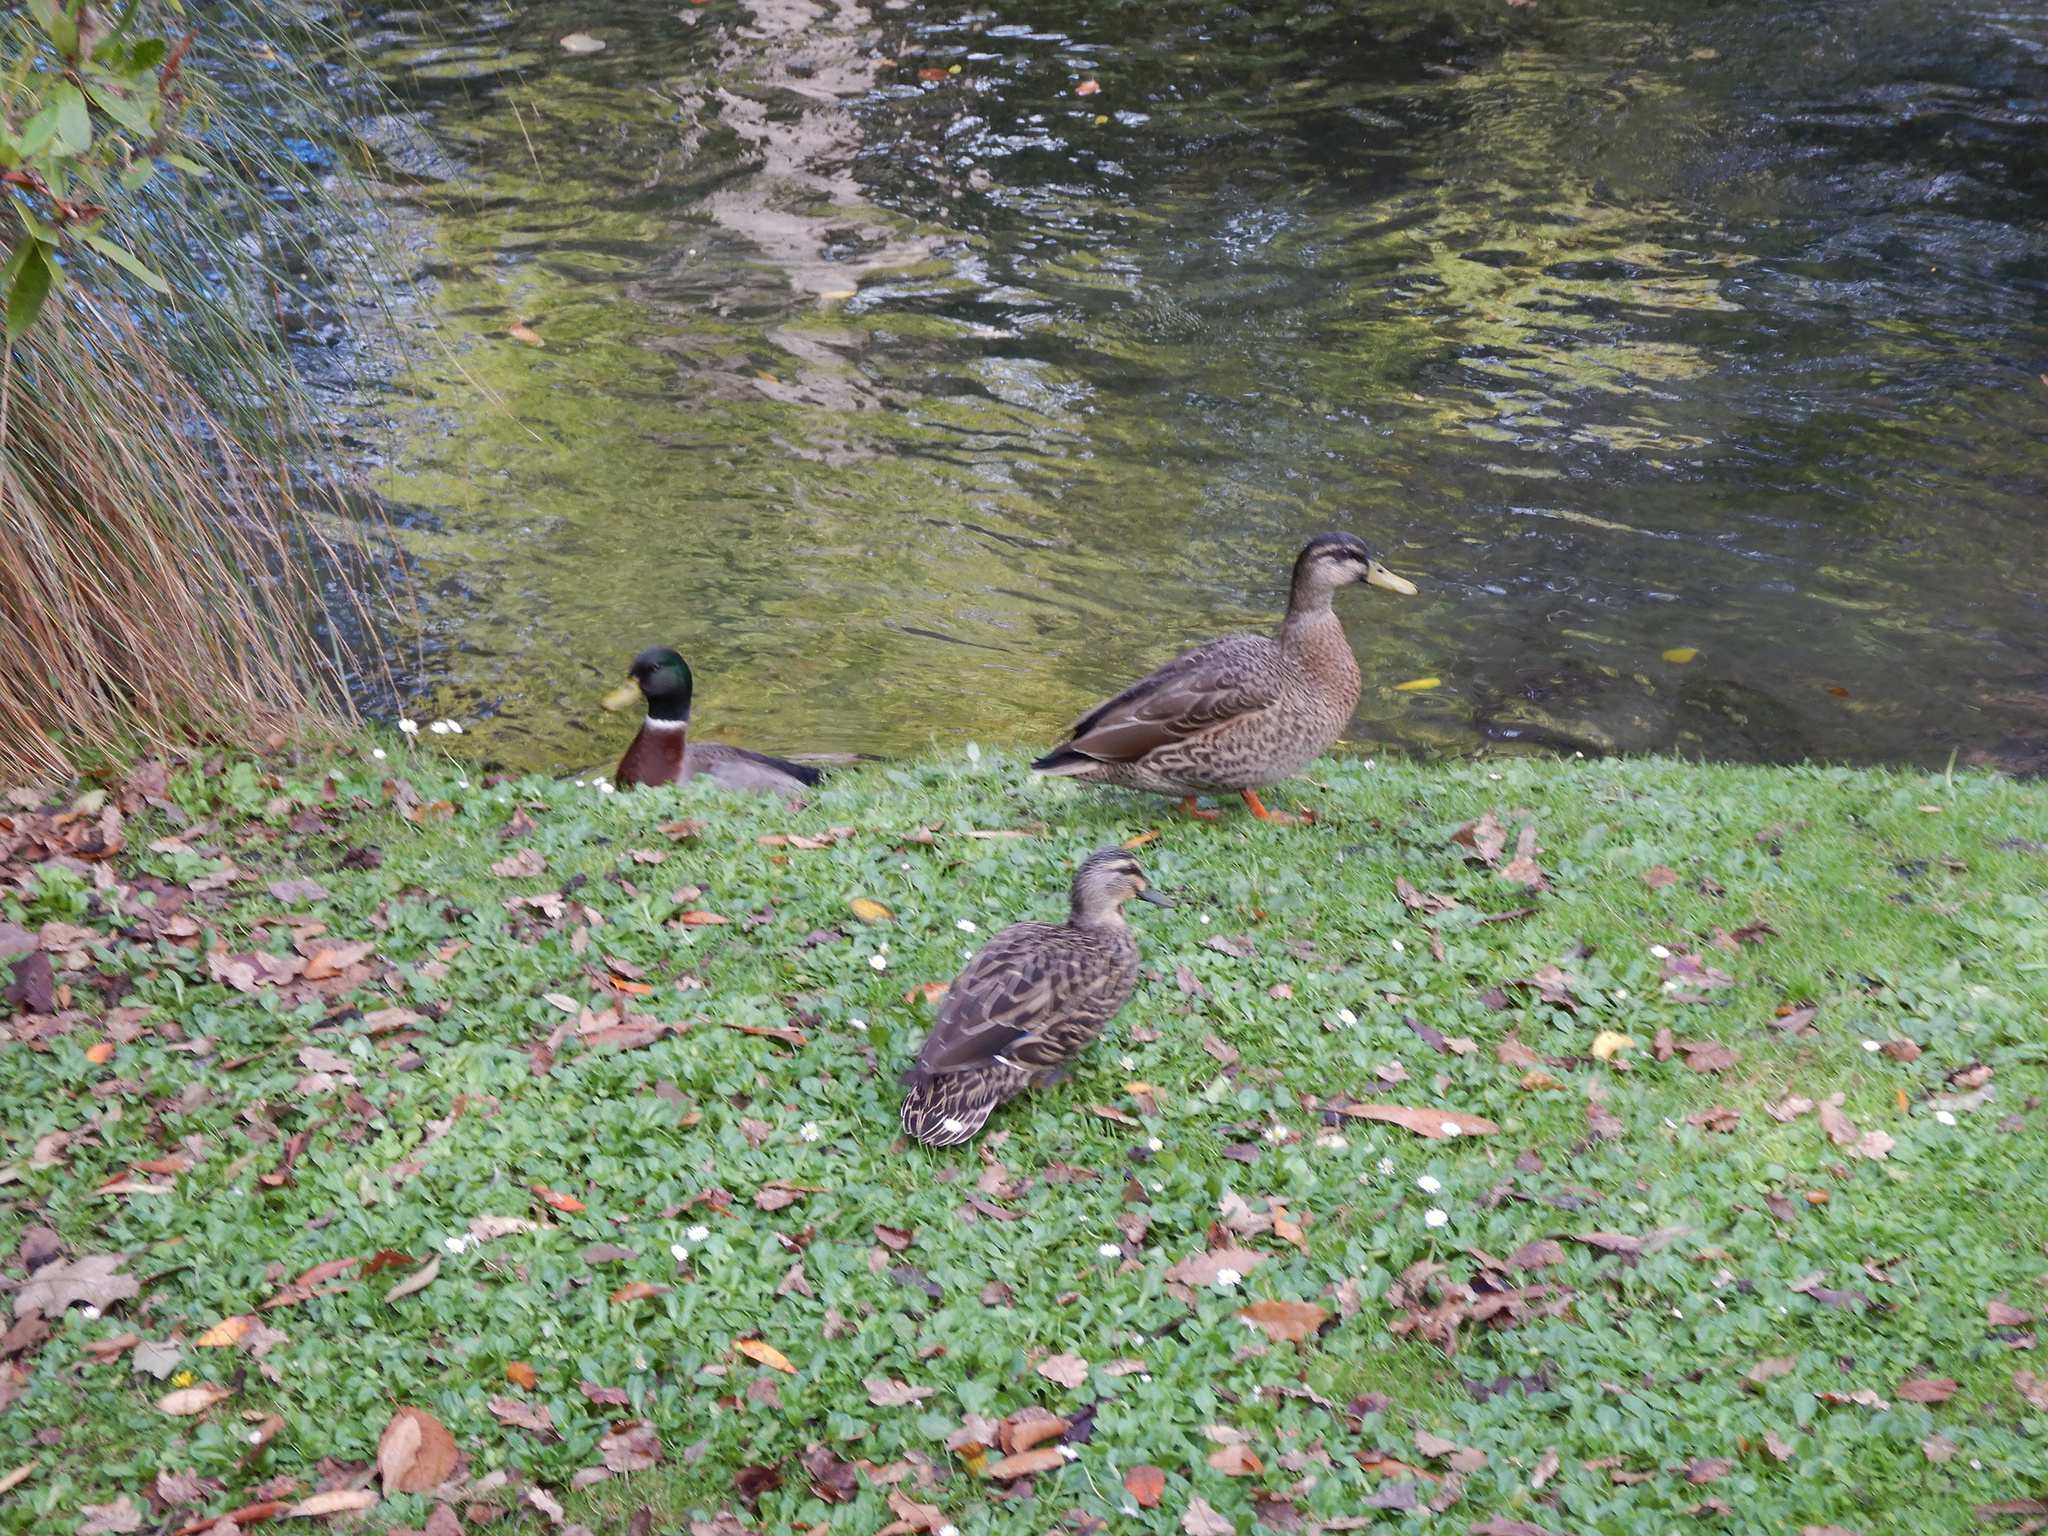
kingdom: Animalia
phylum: Chordata
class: Aves
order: Anseriformes
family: Anatidae
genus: Anas
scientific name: Anas
